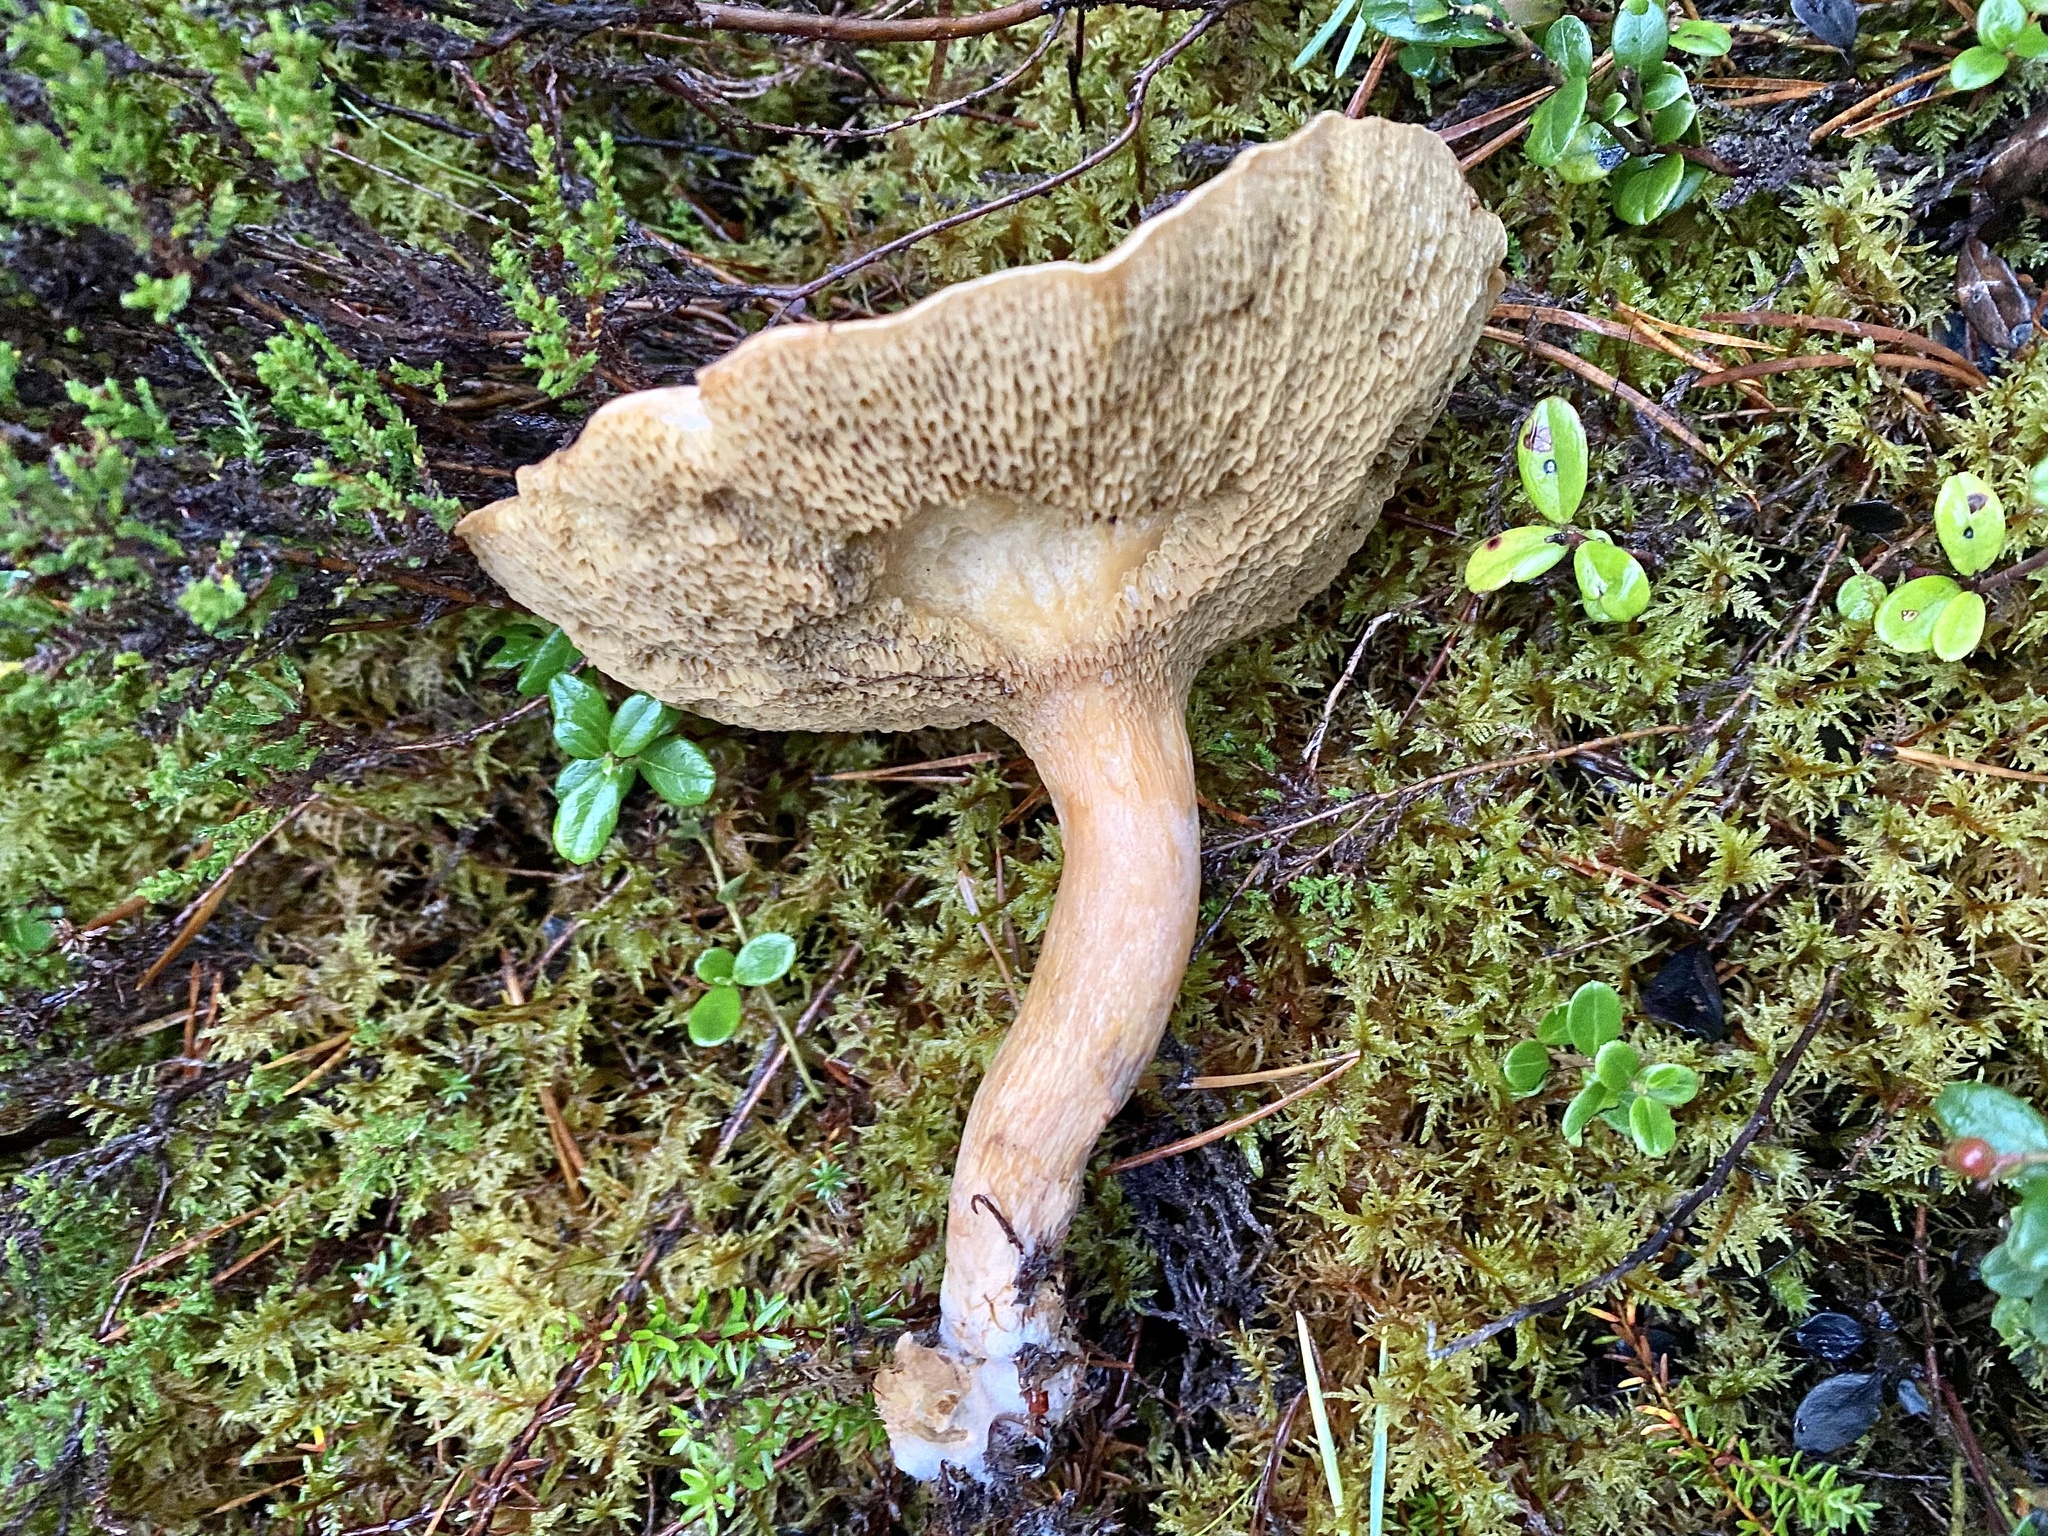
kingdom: Fungi
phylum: Basidiomycota
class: Agaricomycetes
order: Boletales
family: Suillaceae
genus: Suillus
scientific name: Suillus bovinus
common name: Bovine bolete
